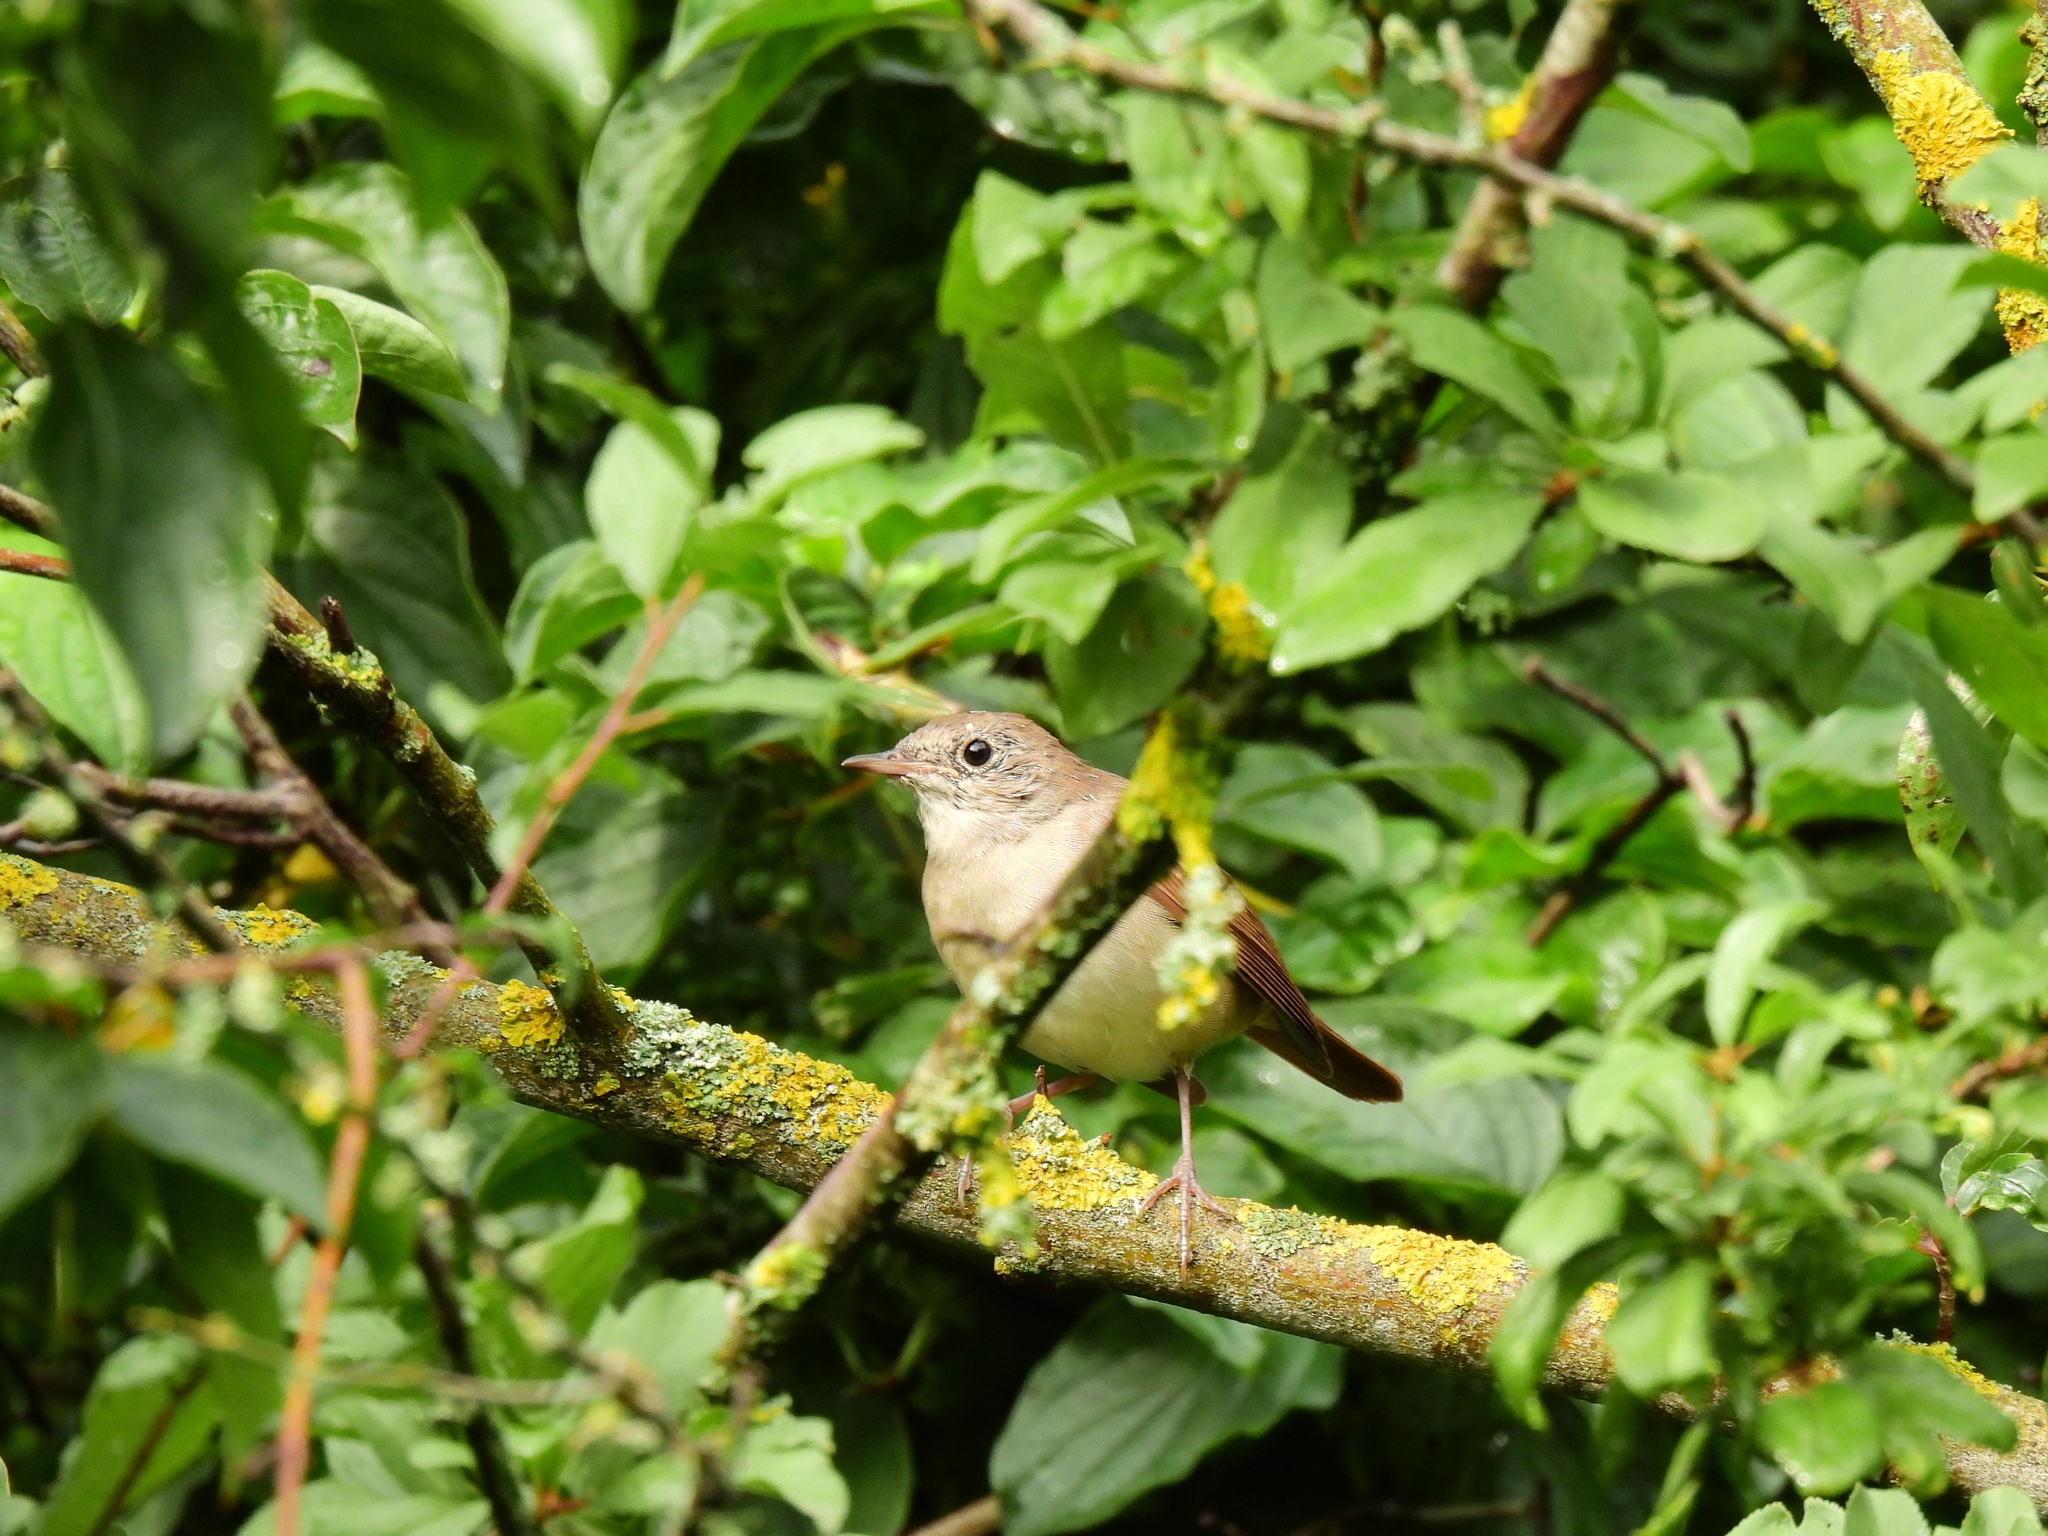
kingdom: Animalia
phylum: Chordata
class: Aves
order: Passeriformes
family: Muscicapidae
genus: Luscinia
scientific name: Luscinia megarhynchos
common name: Common nightingale
